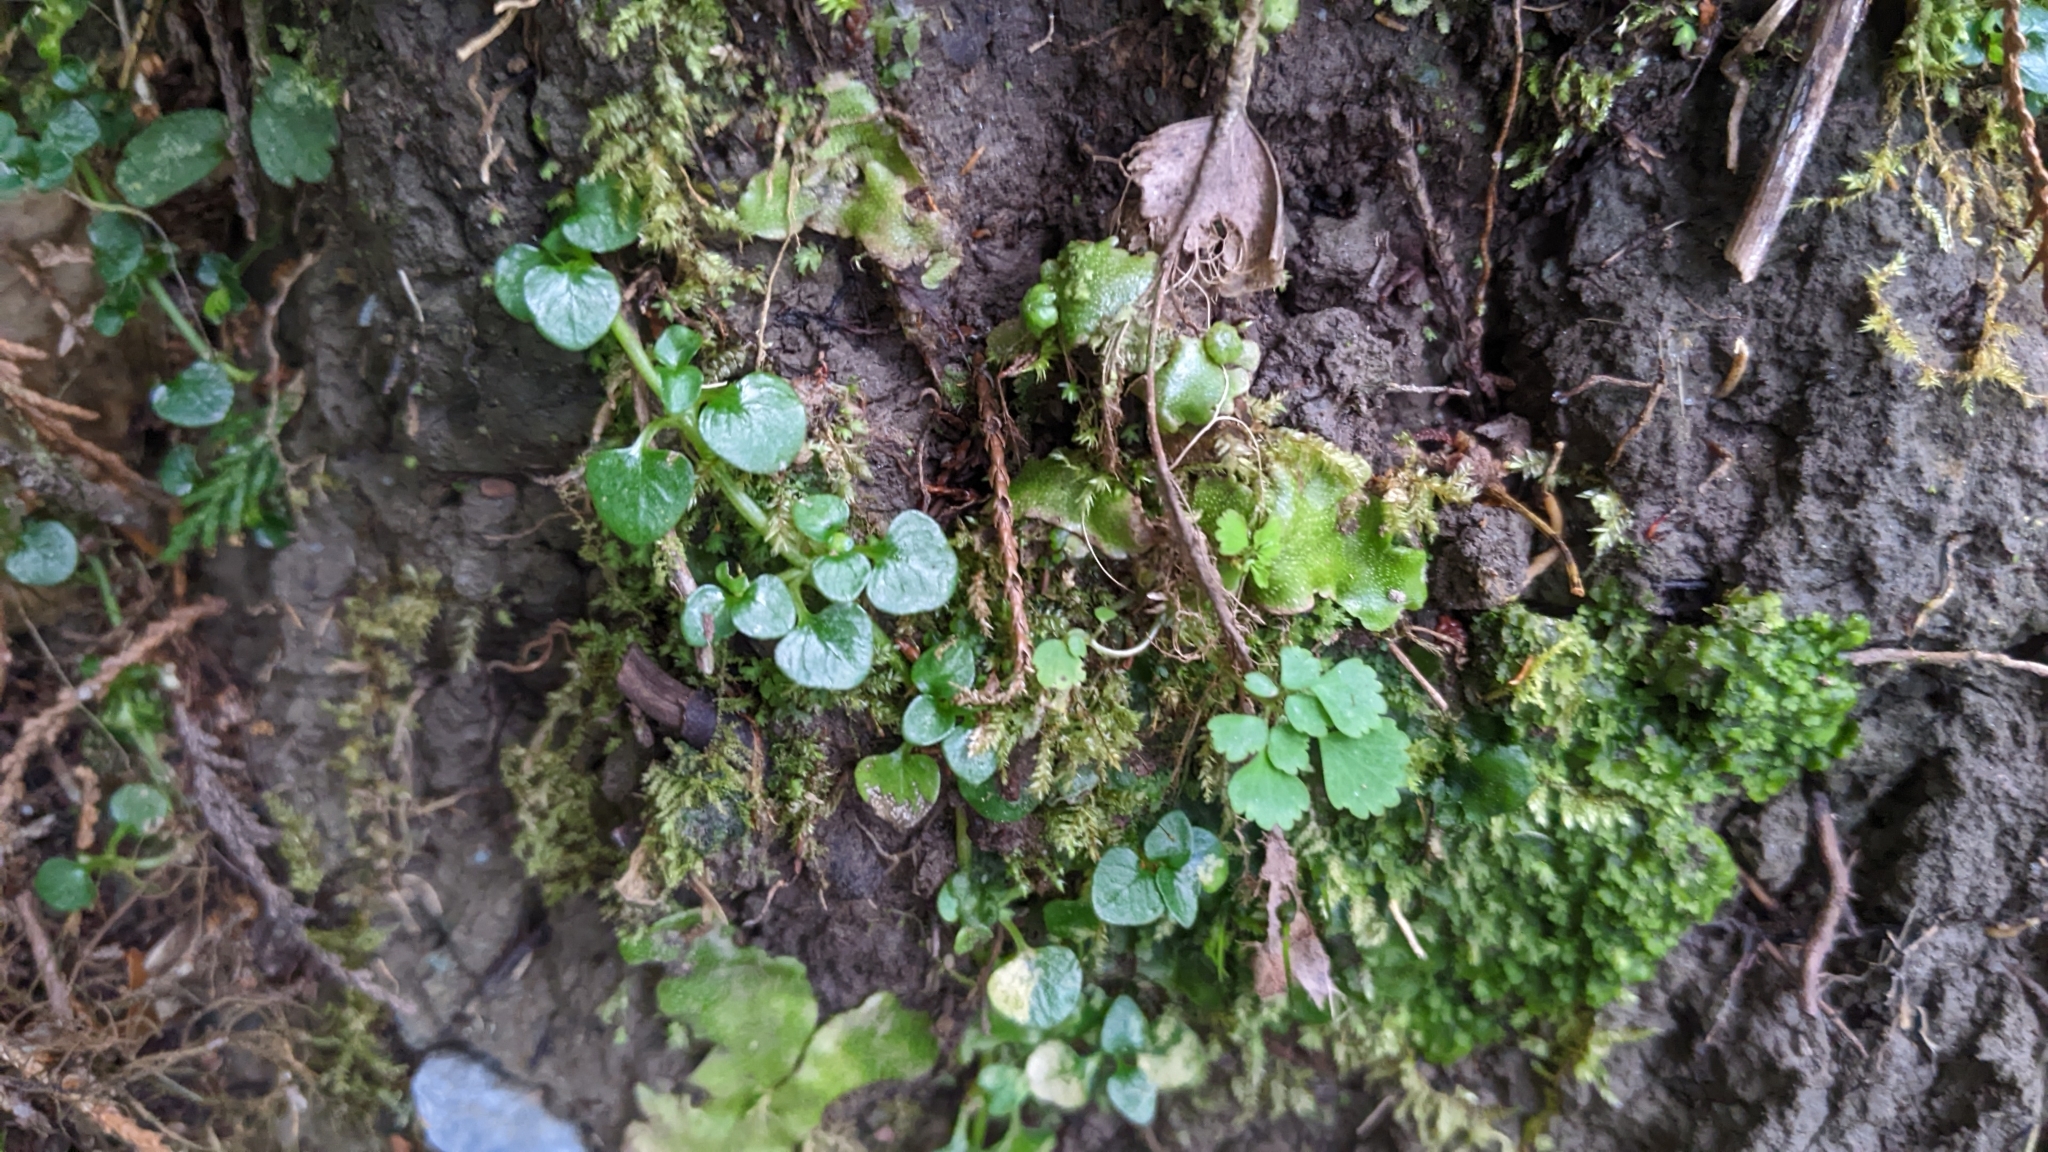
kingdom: Plantae
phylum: Tracheophyta
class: Magnoliopsida
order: Gentianales
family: Rubiaceae
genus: Nertera
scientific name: Nertera nigricarpa
